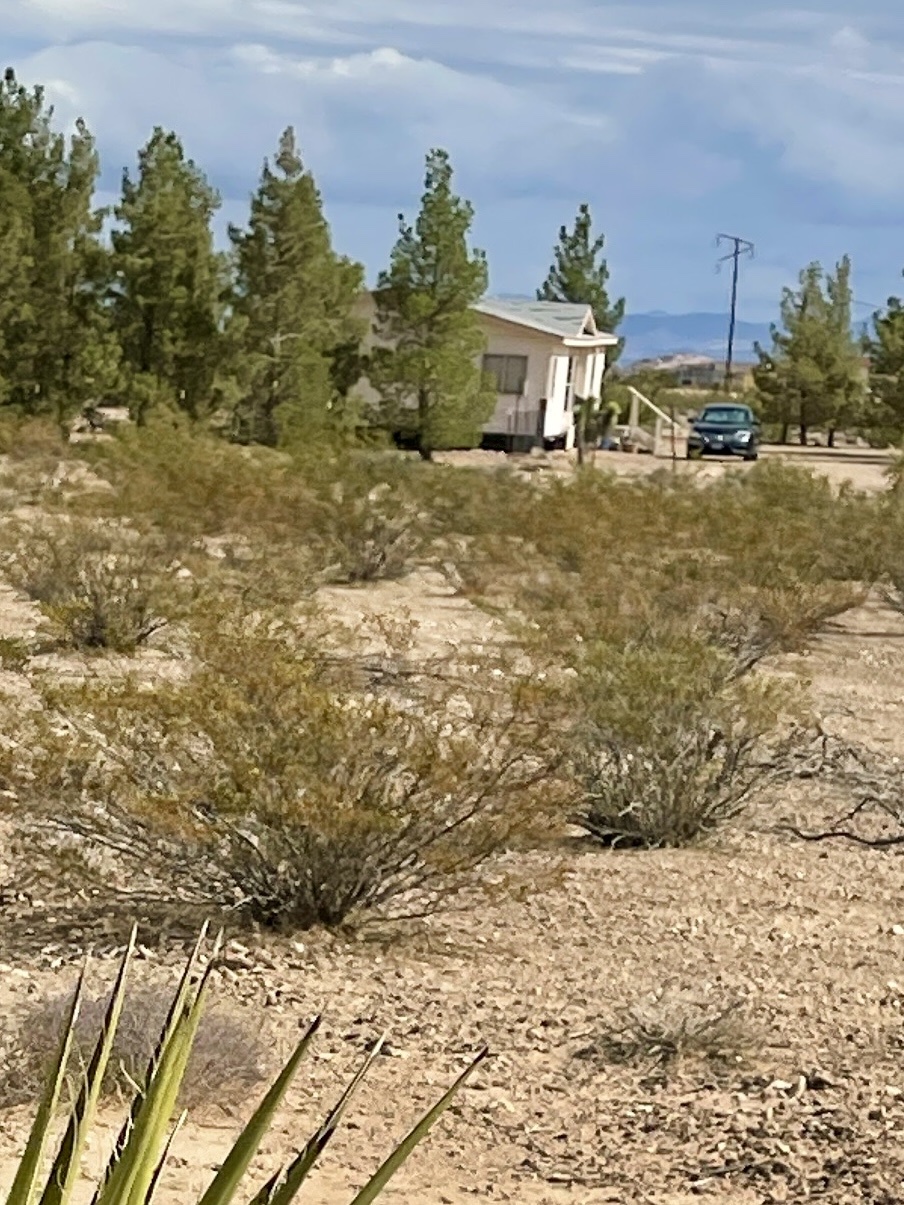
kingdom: Plantae
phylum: Tracheophyta
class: Magnoliopsida
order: Zygophyllales
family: Zygophyllaceae
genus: Larrea
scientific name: Larrea tridentata
